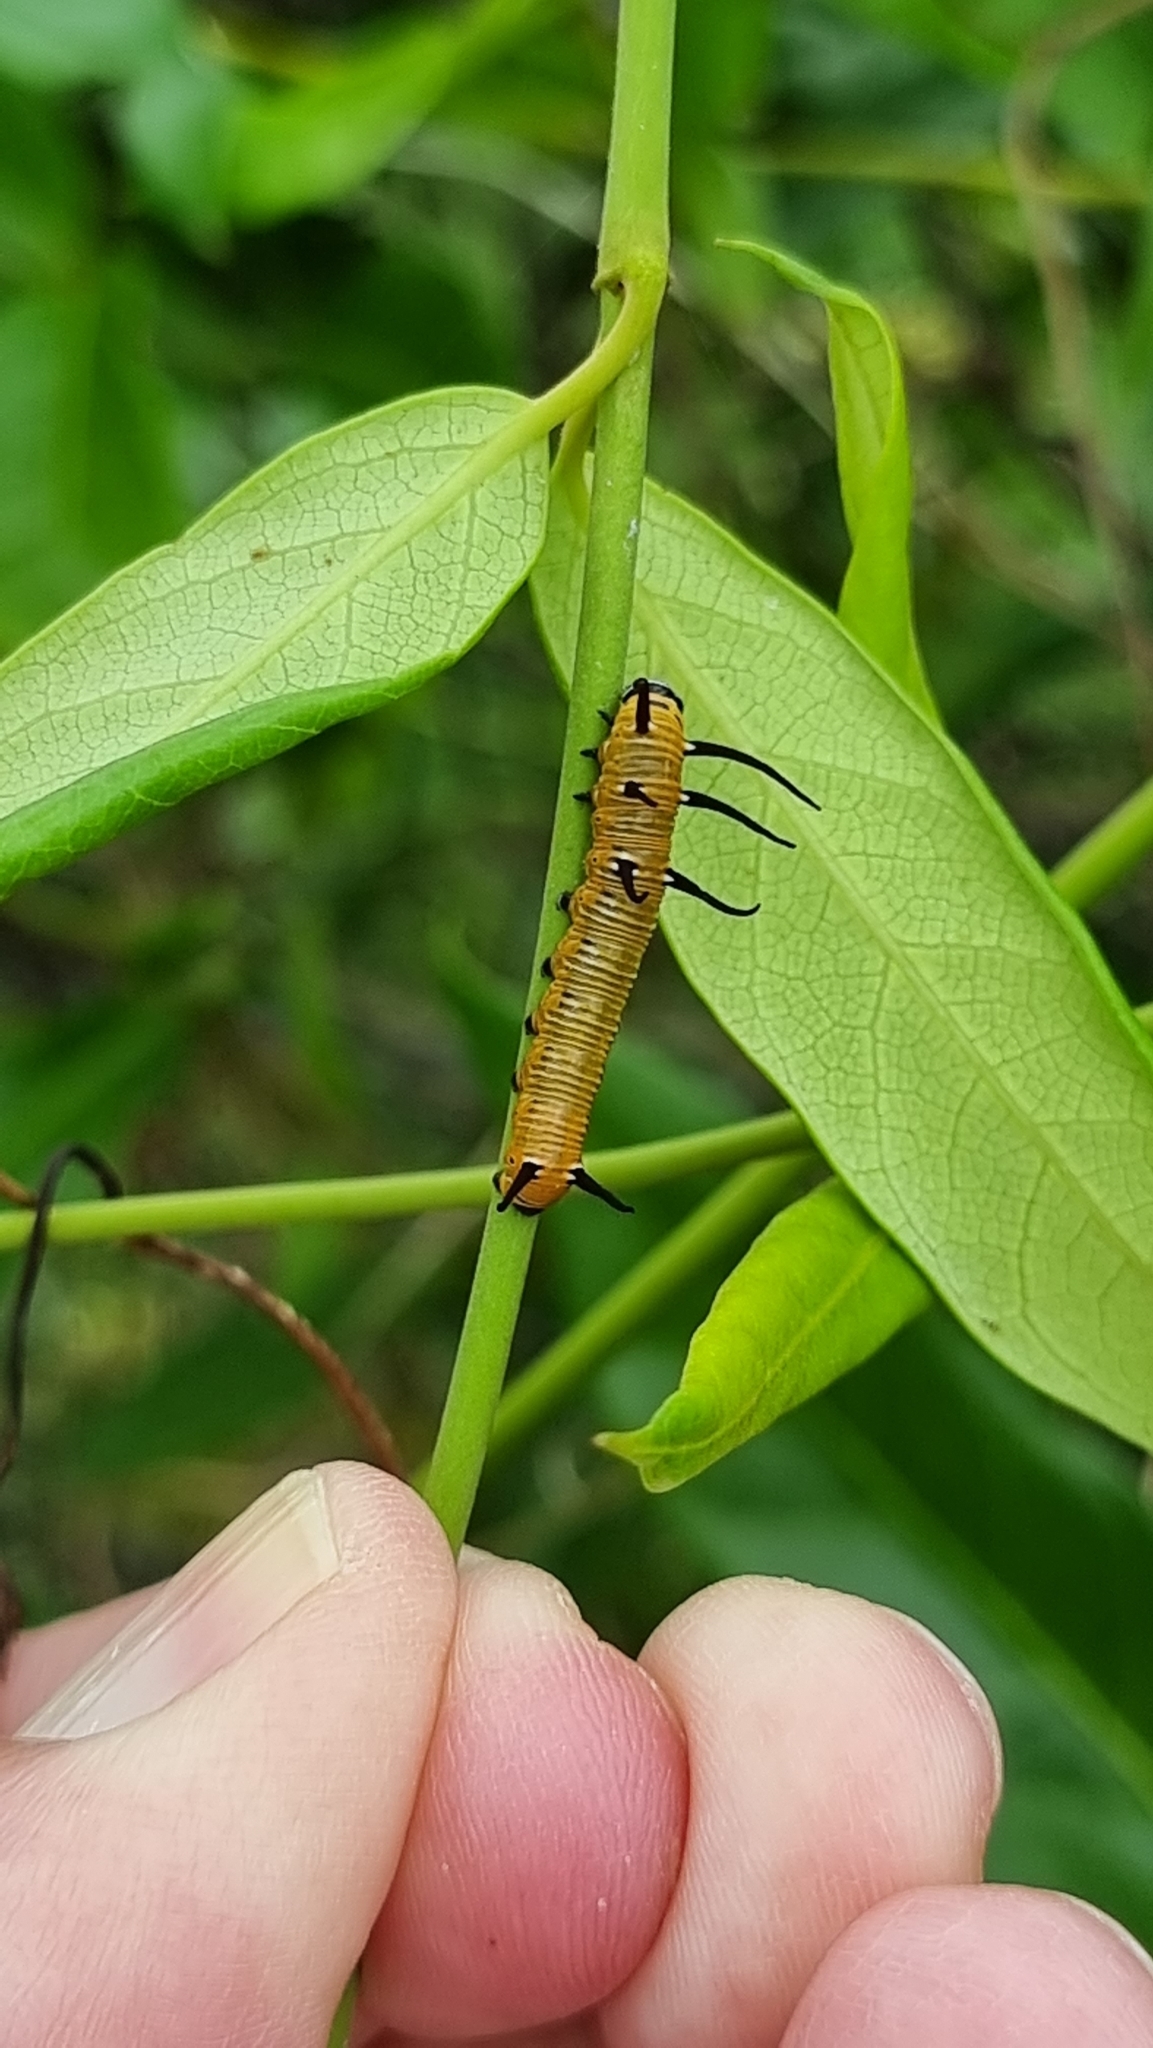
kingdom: Animalia
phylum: Arthropoda
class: Insecta
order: Lepidoptera
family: Nymphalidae
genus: Euploea
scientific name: Euploea core
